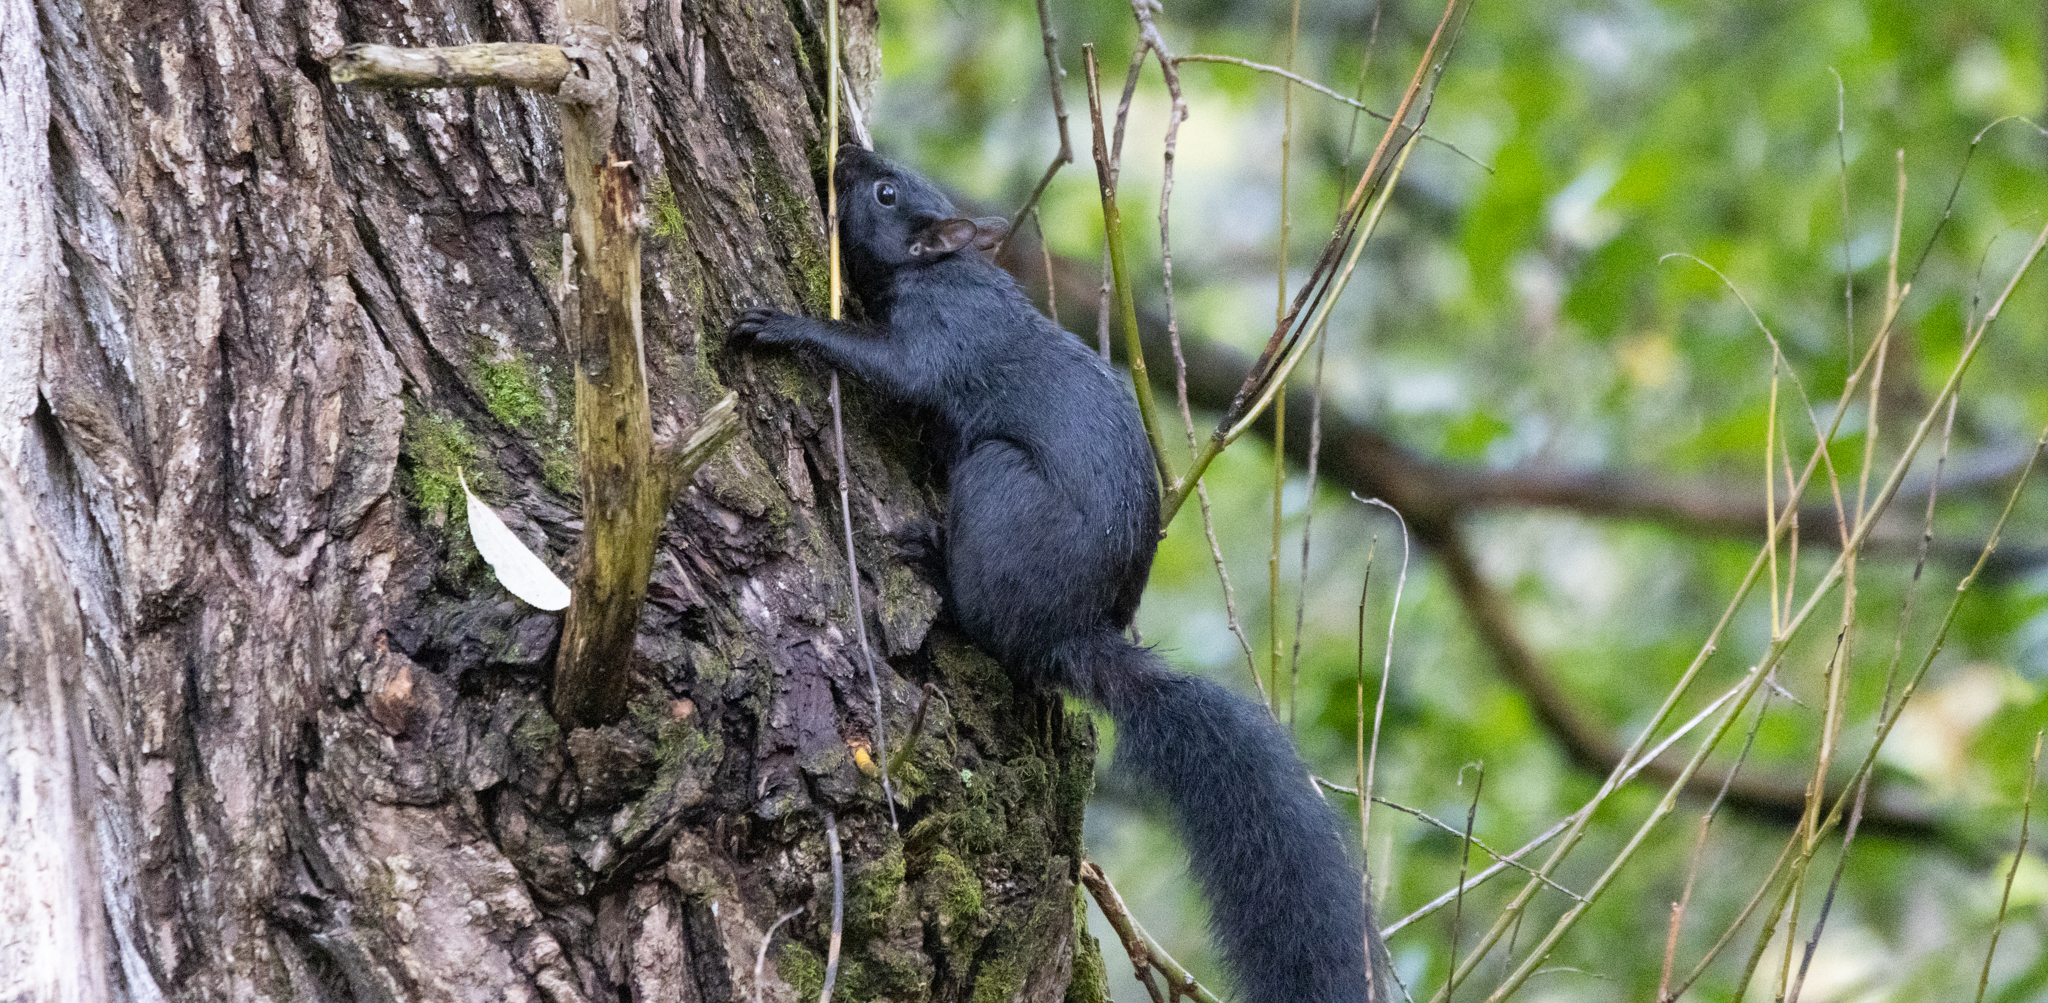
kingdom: Animalia
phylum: Chordata
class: Mammalia
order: Rodentia
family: Sciuridae
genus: Sciurus
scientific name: Sciurus carolinensis
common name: Eastern gray squirrel
